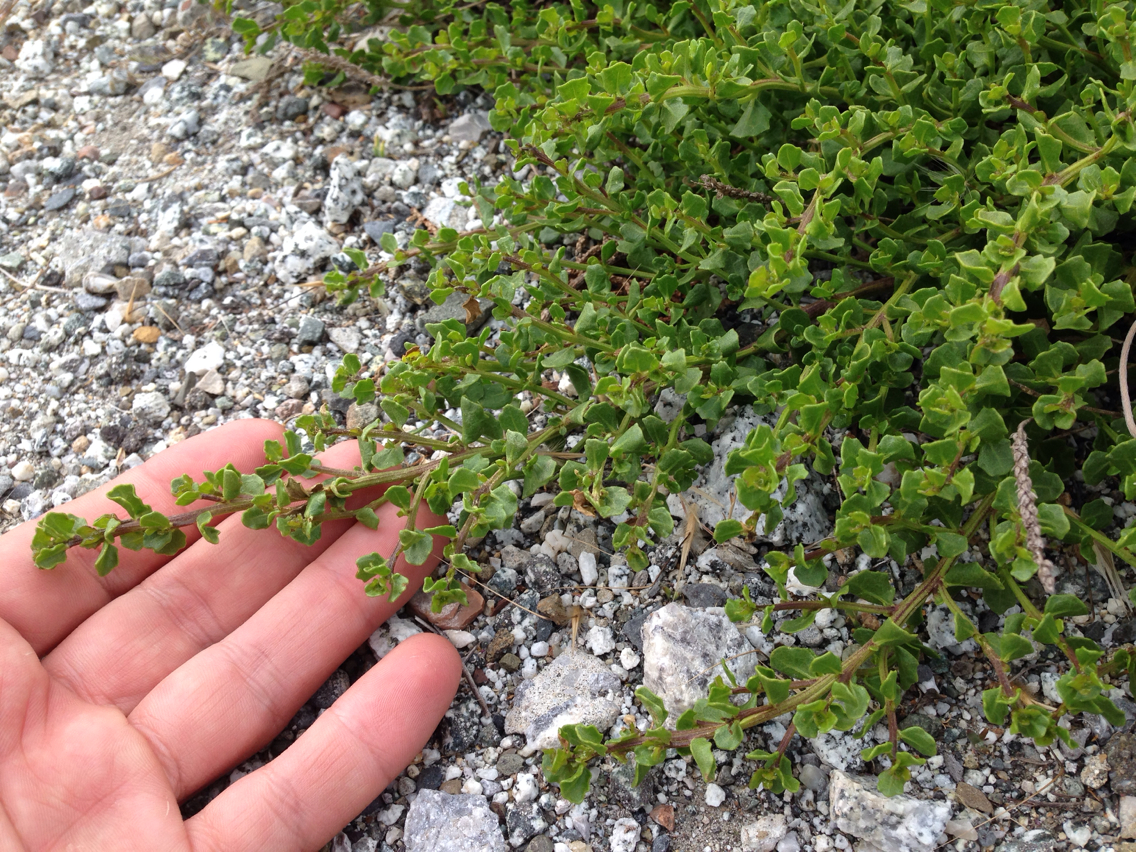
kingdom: Plantae
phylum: Tracheophyta
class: Magnoliopsida
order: Asterales
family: Asteraceae
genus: Baccharis
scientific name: Baccharis pilularis
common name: Coyotebrush
